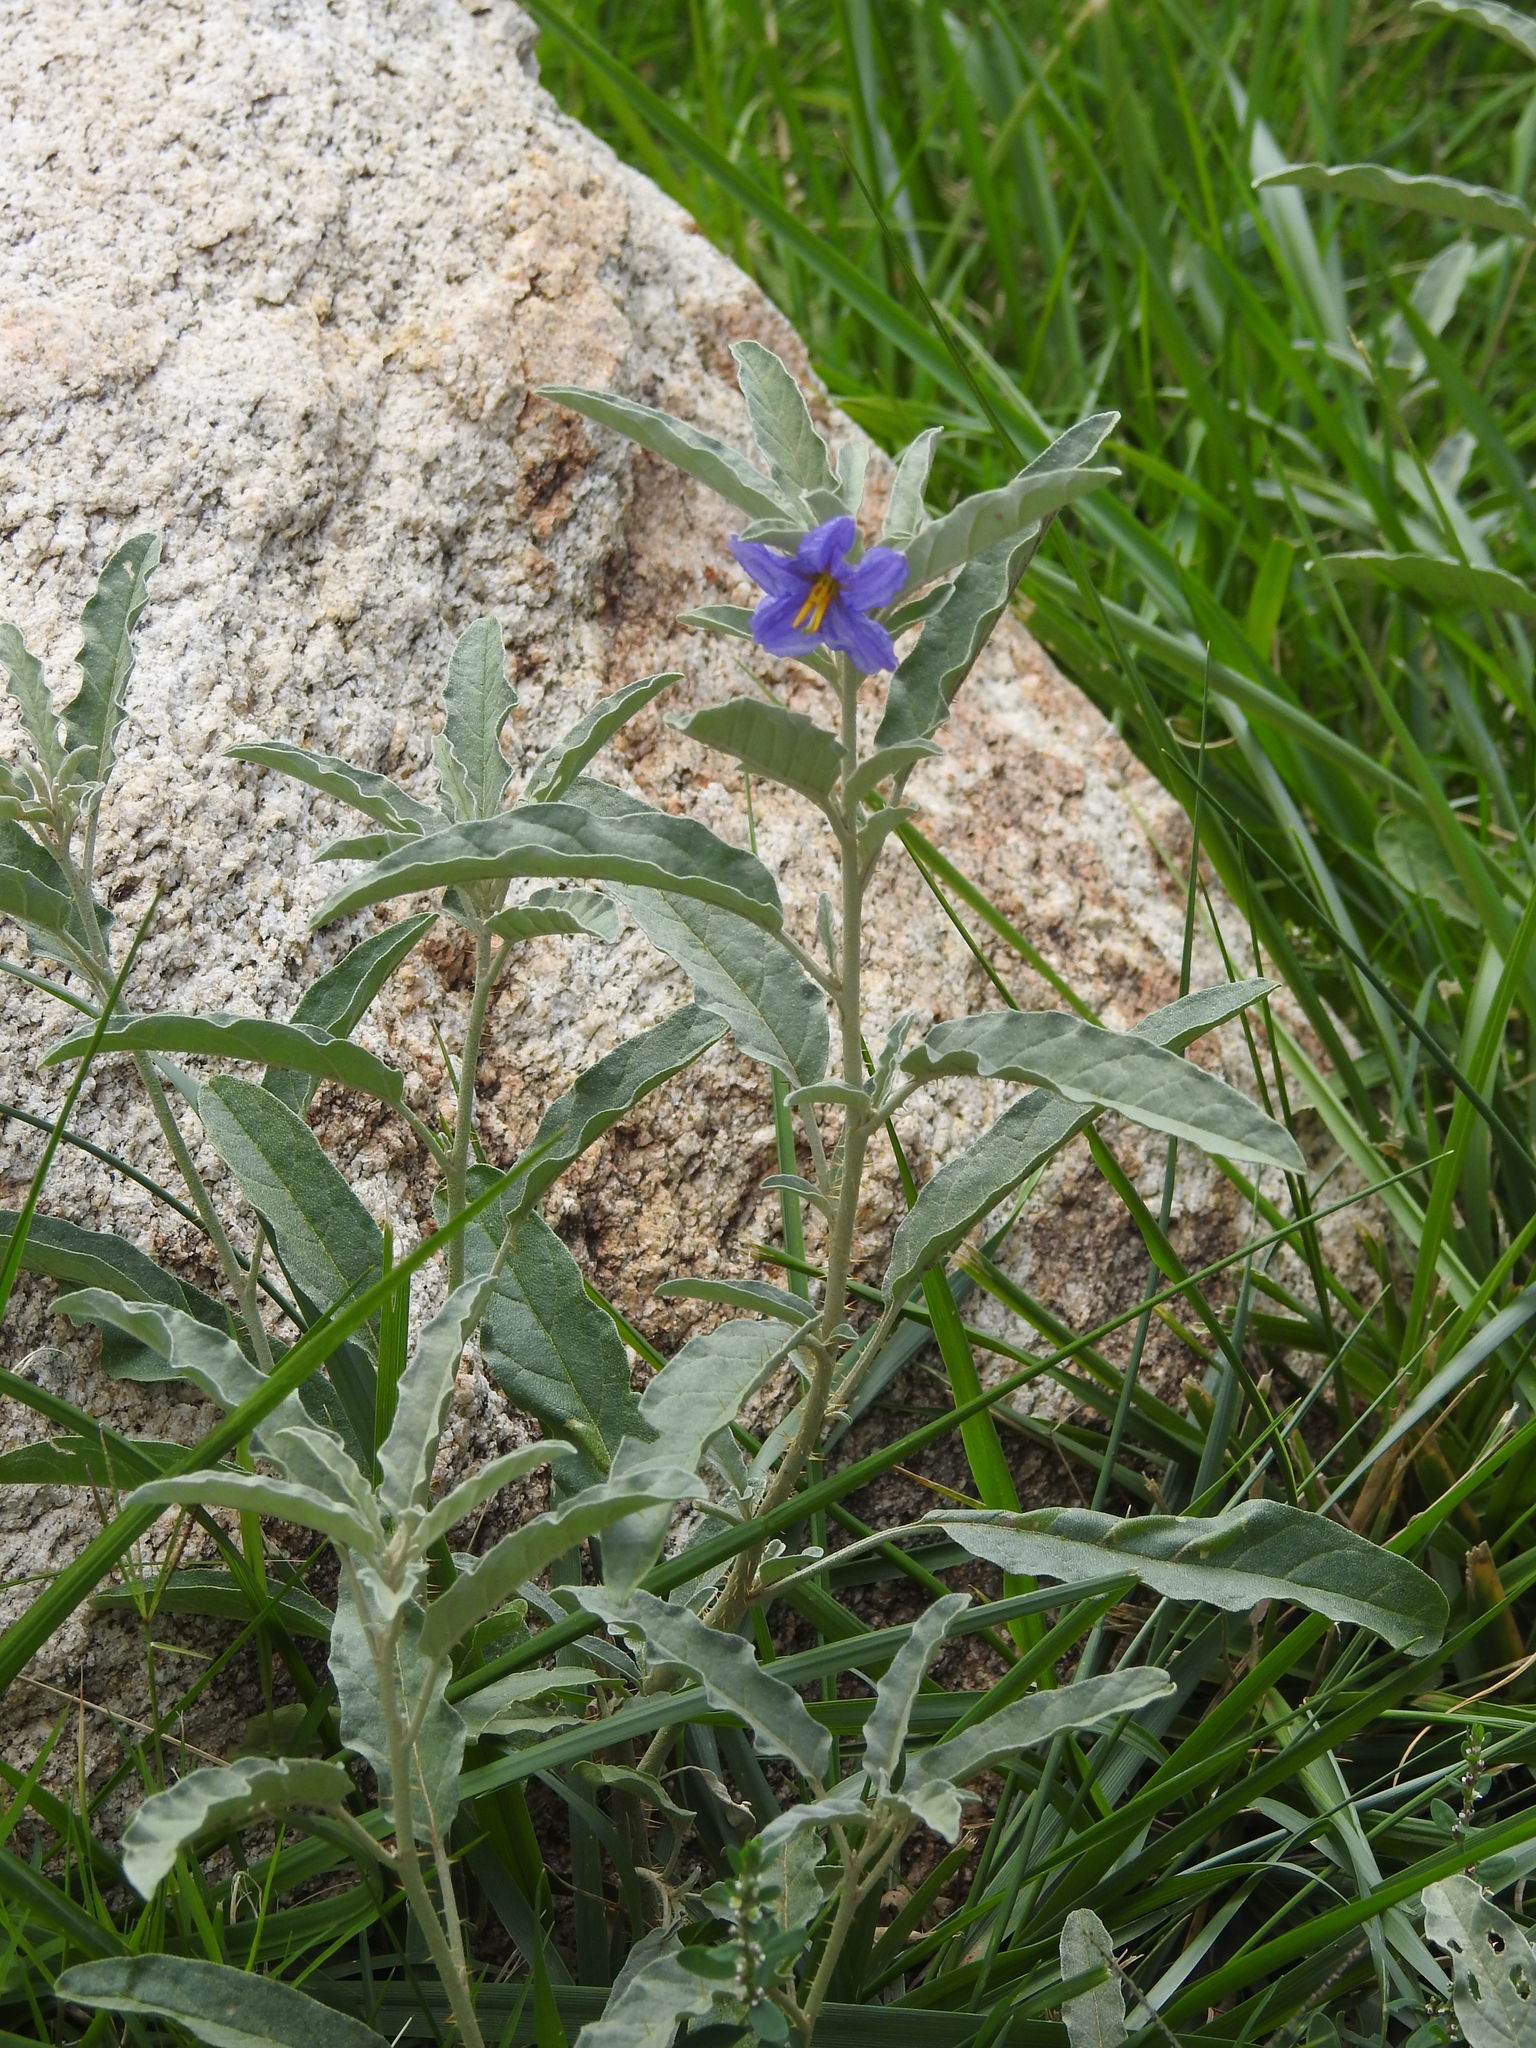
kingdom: Plantae
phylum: Tracheophyta
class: Magnoliopsida
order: Solanales
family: Solanaceae
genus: Solanum
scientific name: Solanum elaeagnifolium
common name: Silverleaf nightshade
